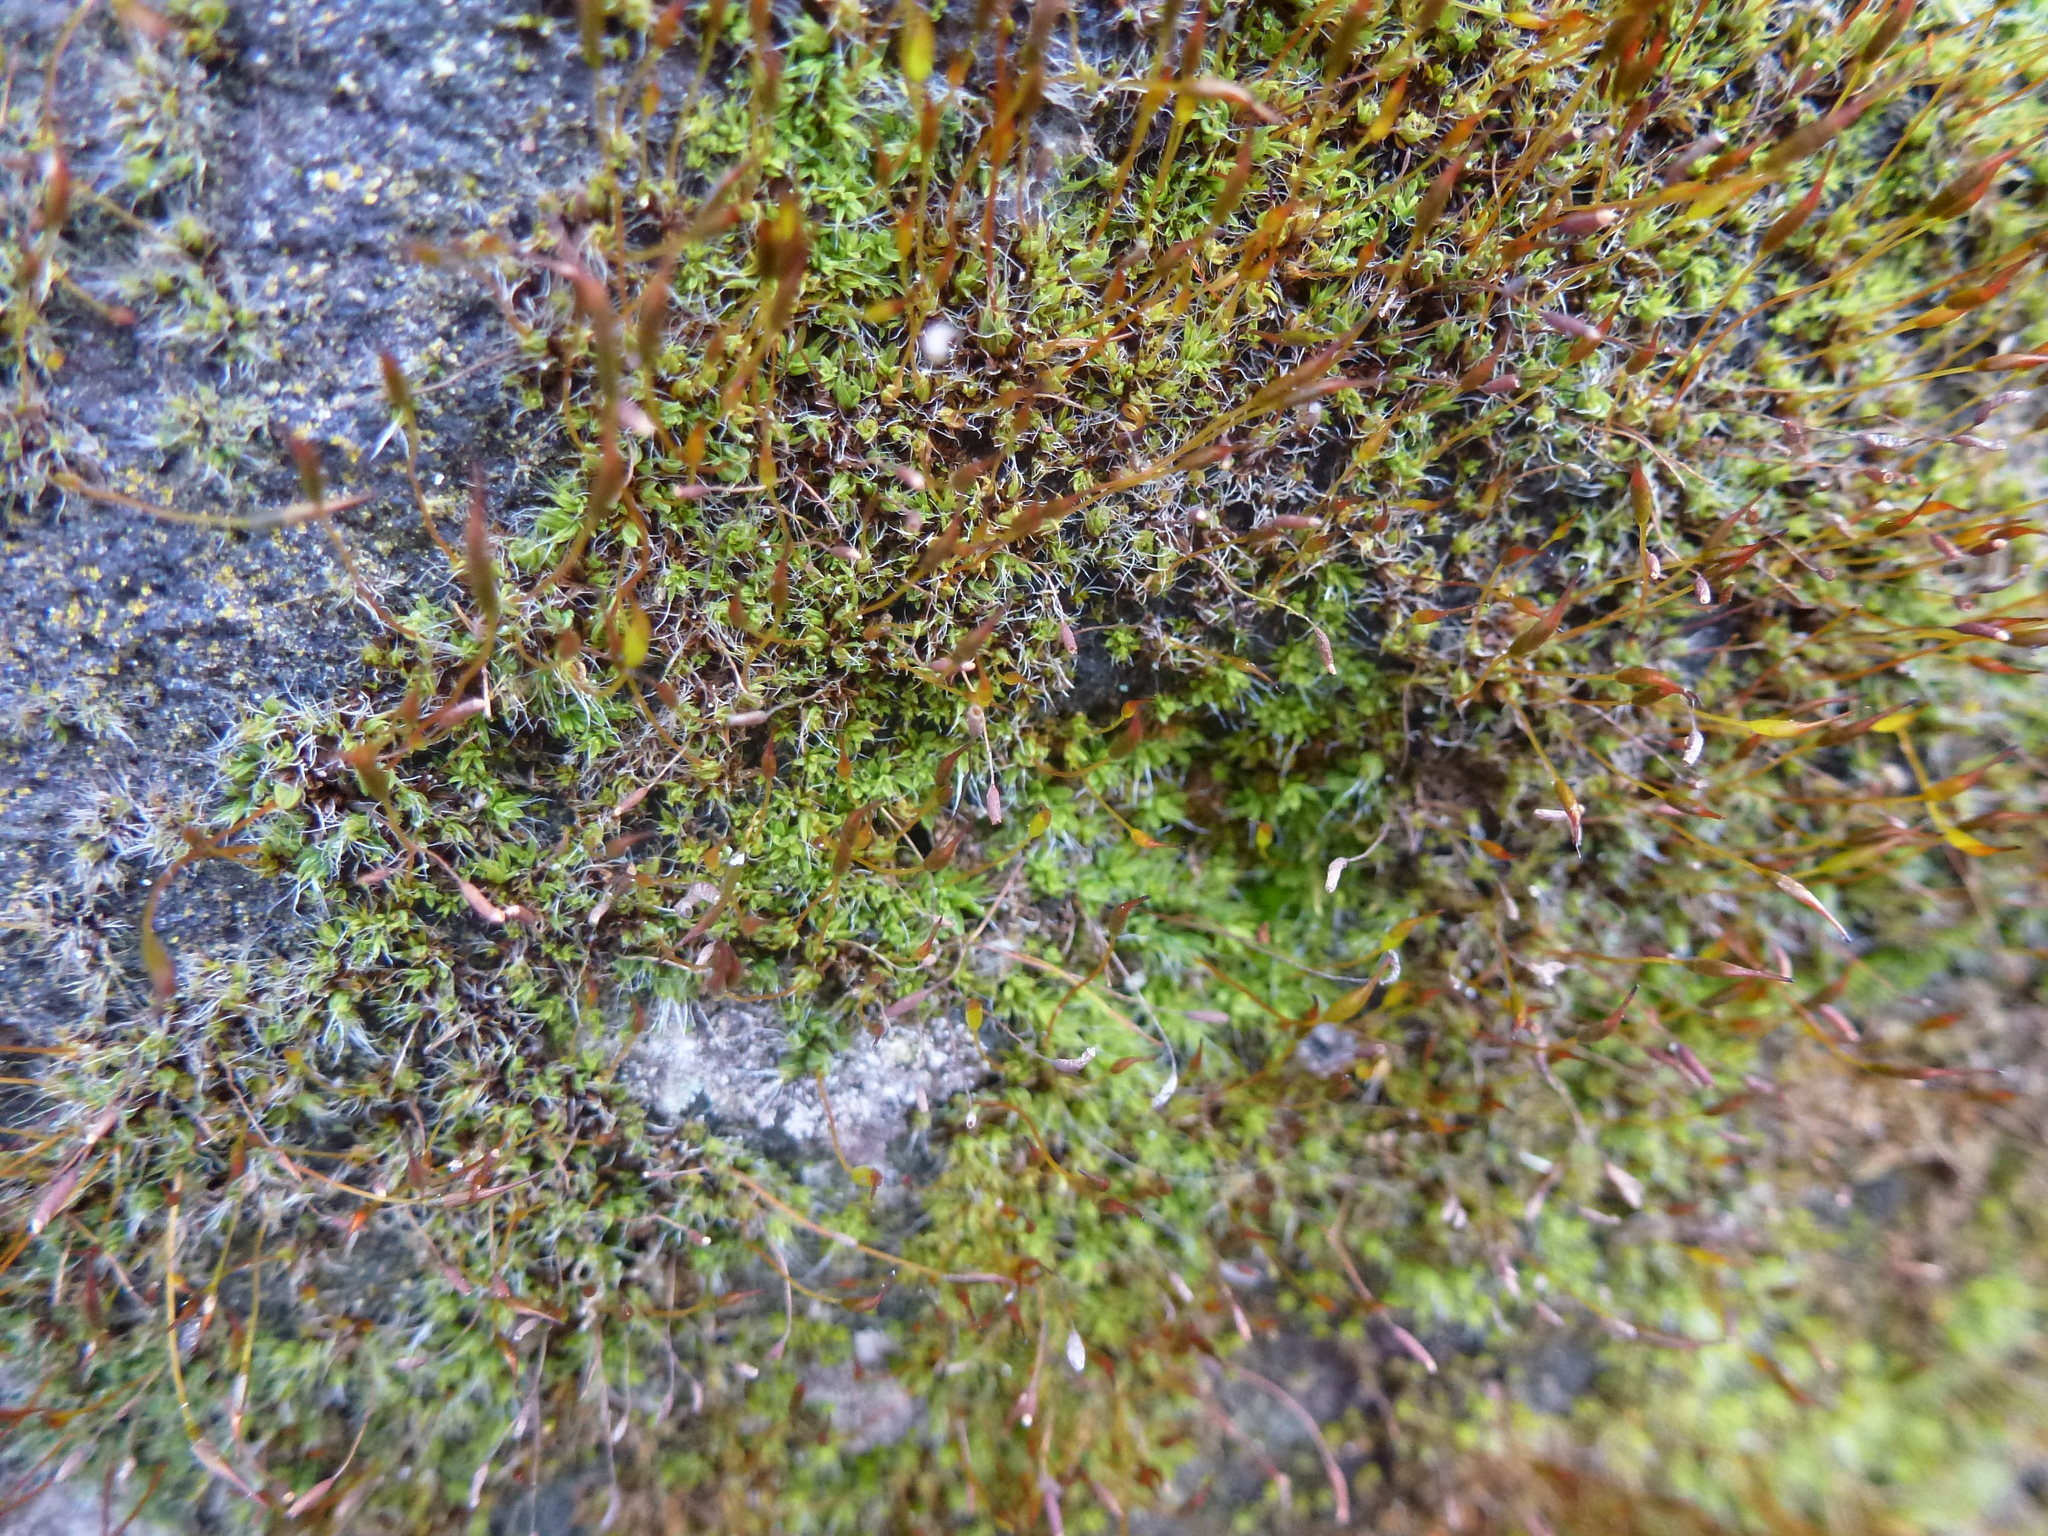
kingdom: Plantae
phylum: Bryophyta
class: Bryopsida
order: Pottiales
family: Pottiaceae
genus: Tortula
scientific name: Tortula muralis
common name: Wall screw-moss
